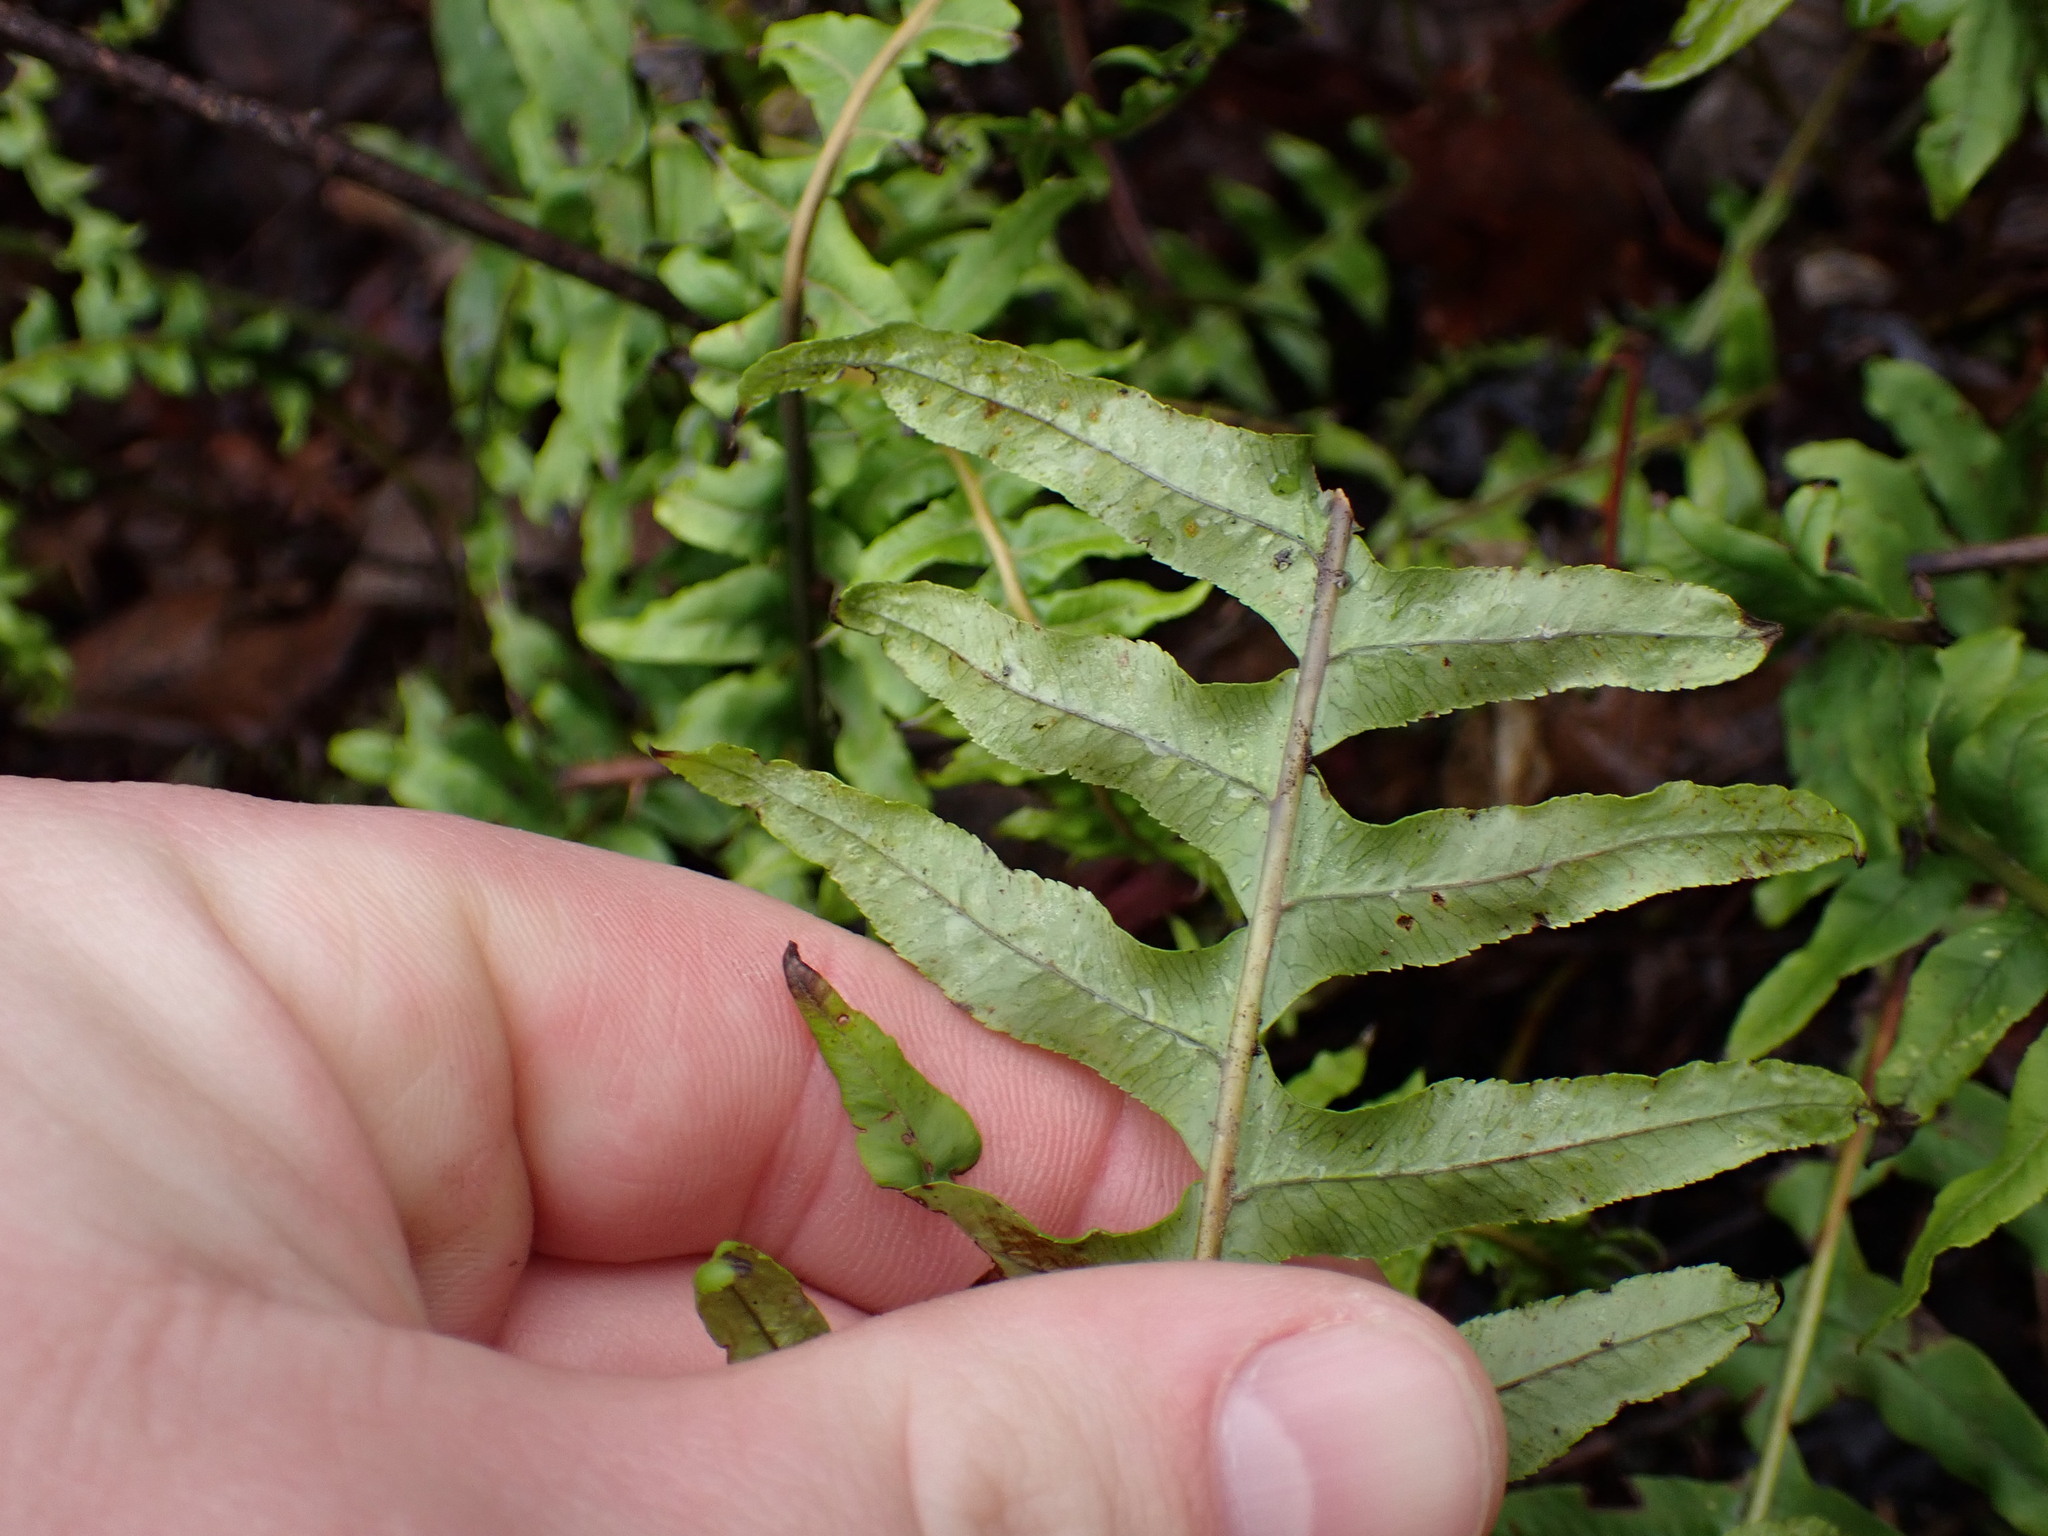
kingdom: Plantae
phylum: Tracheophyta
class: Polypodiopsida
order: Polypodiales
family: Polypodiaceae
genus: Polypodium
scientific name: Polypodium glycyrrhiza
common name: Licorice fern
